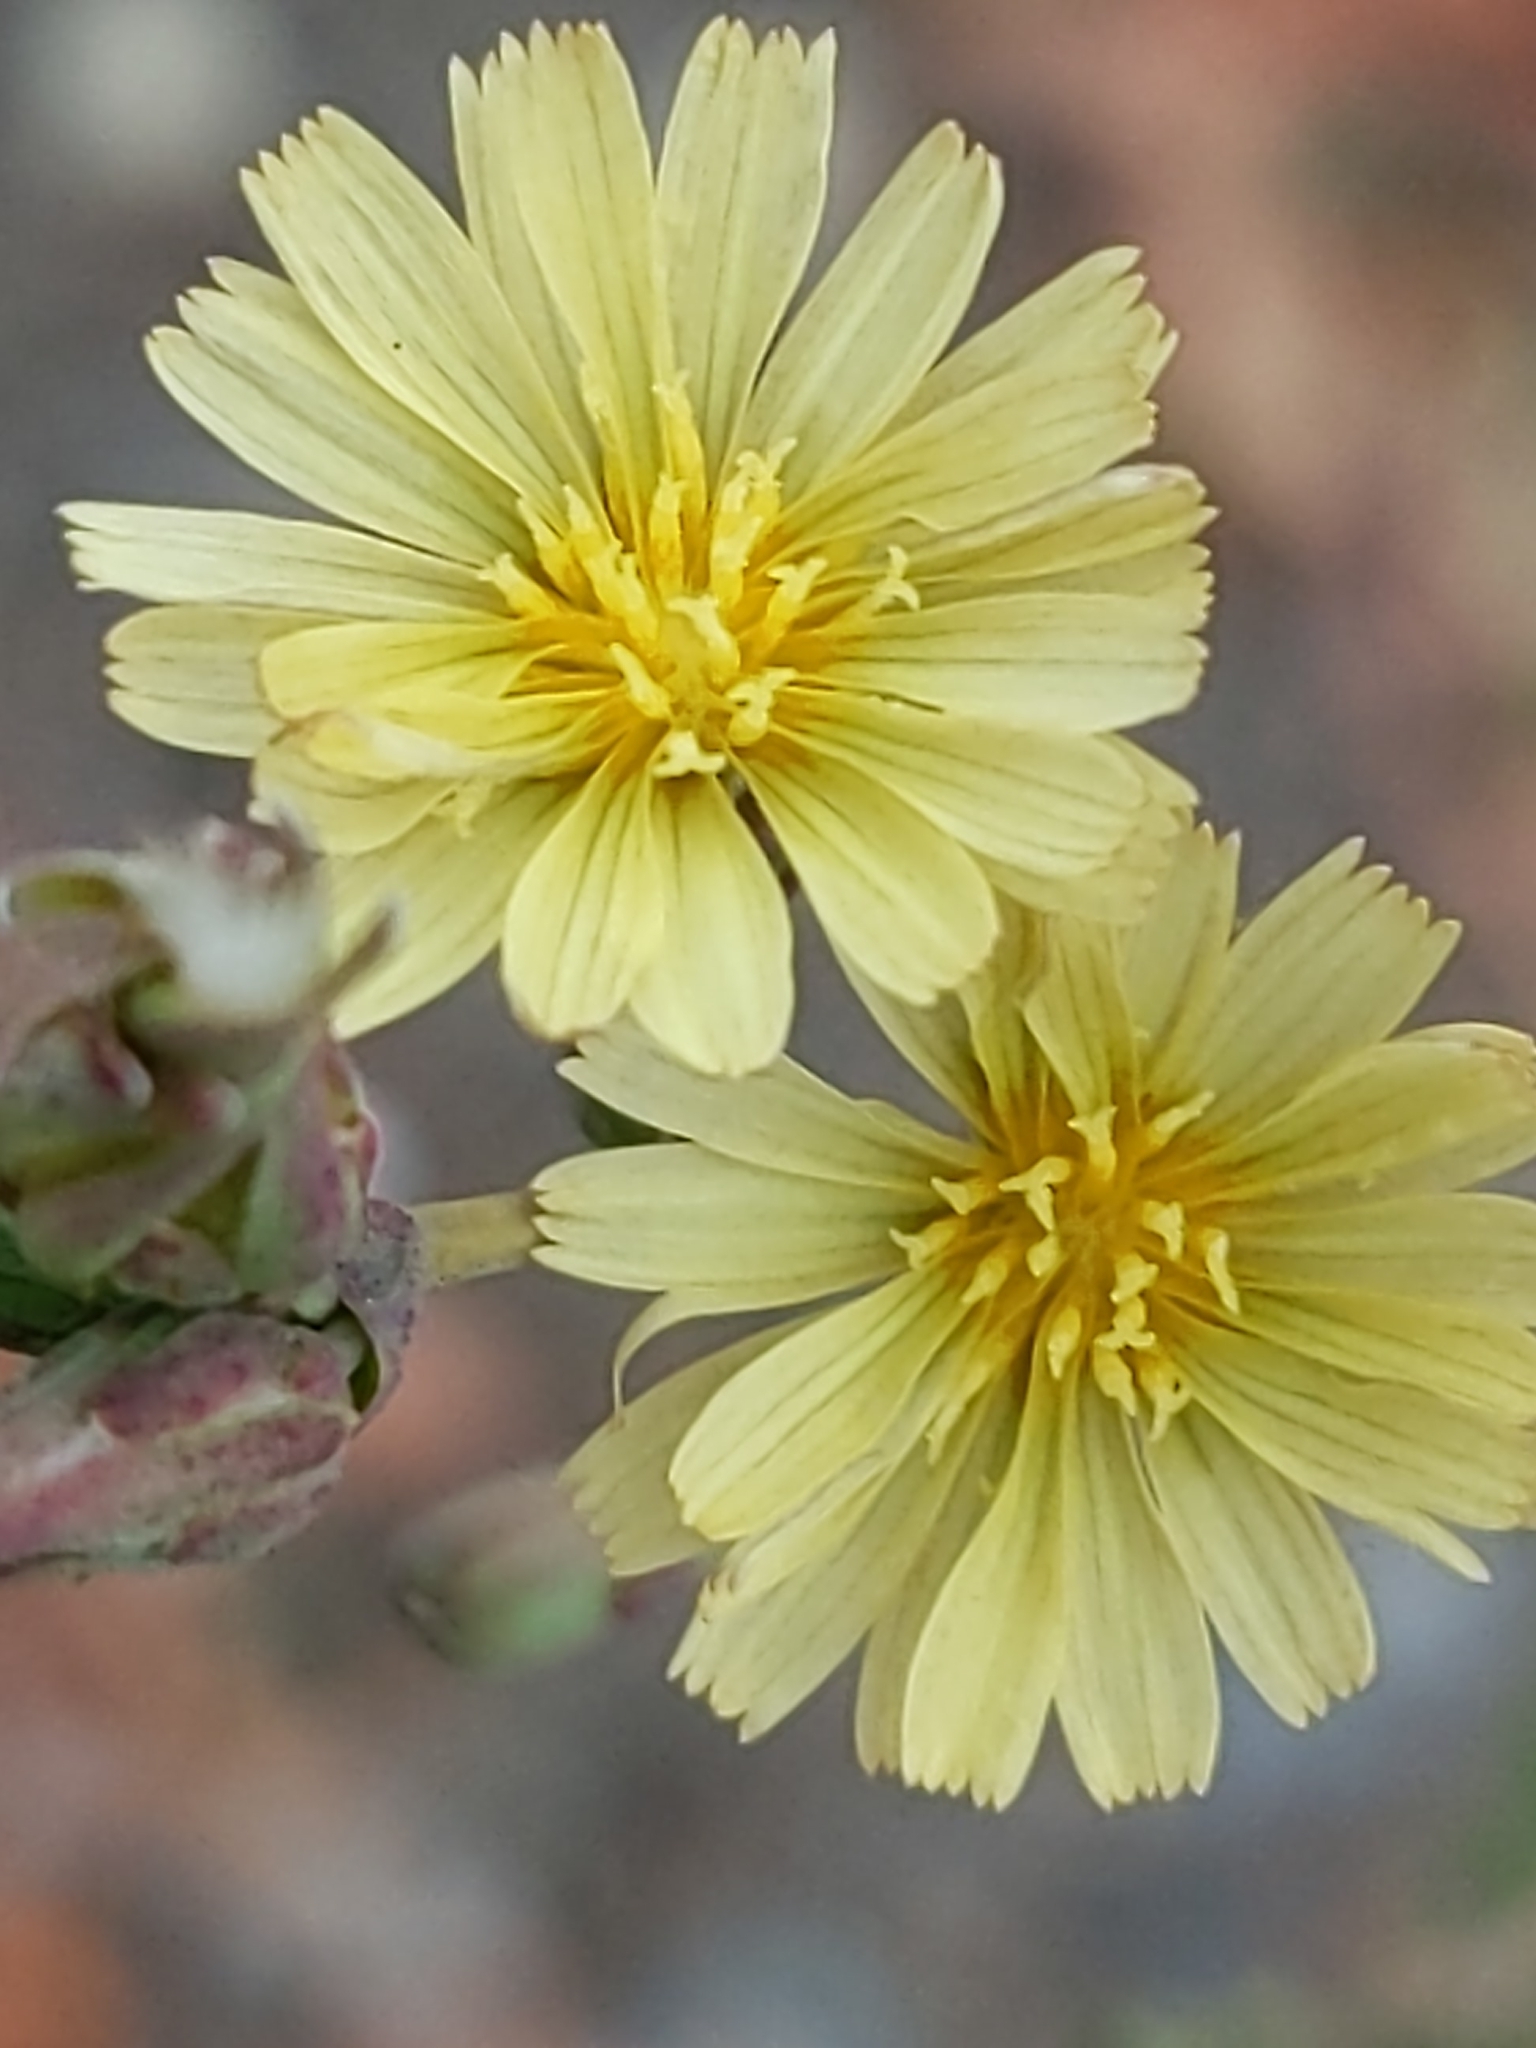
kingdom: Plantae
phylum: Tracheophyta
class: Magnoliopsida
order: Asterales
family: Asteraceae
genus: Lactuca
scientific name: Lactuca serriola
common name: Prickly lettuce
